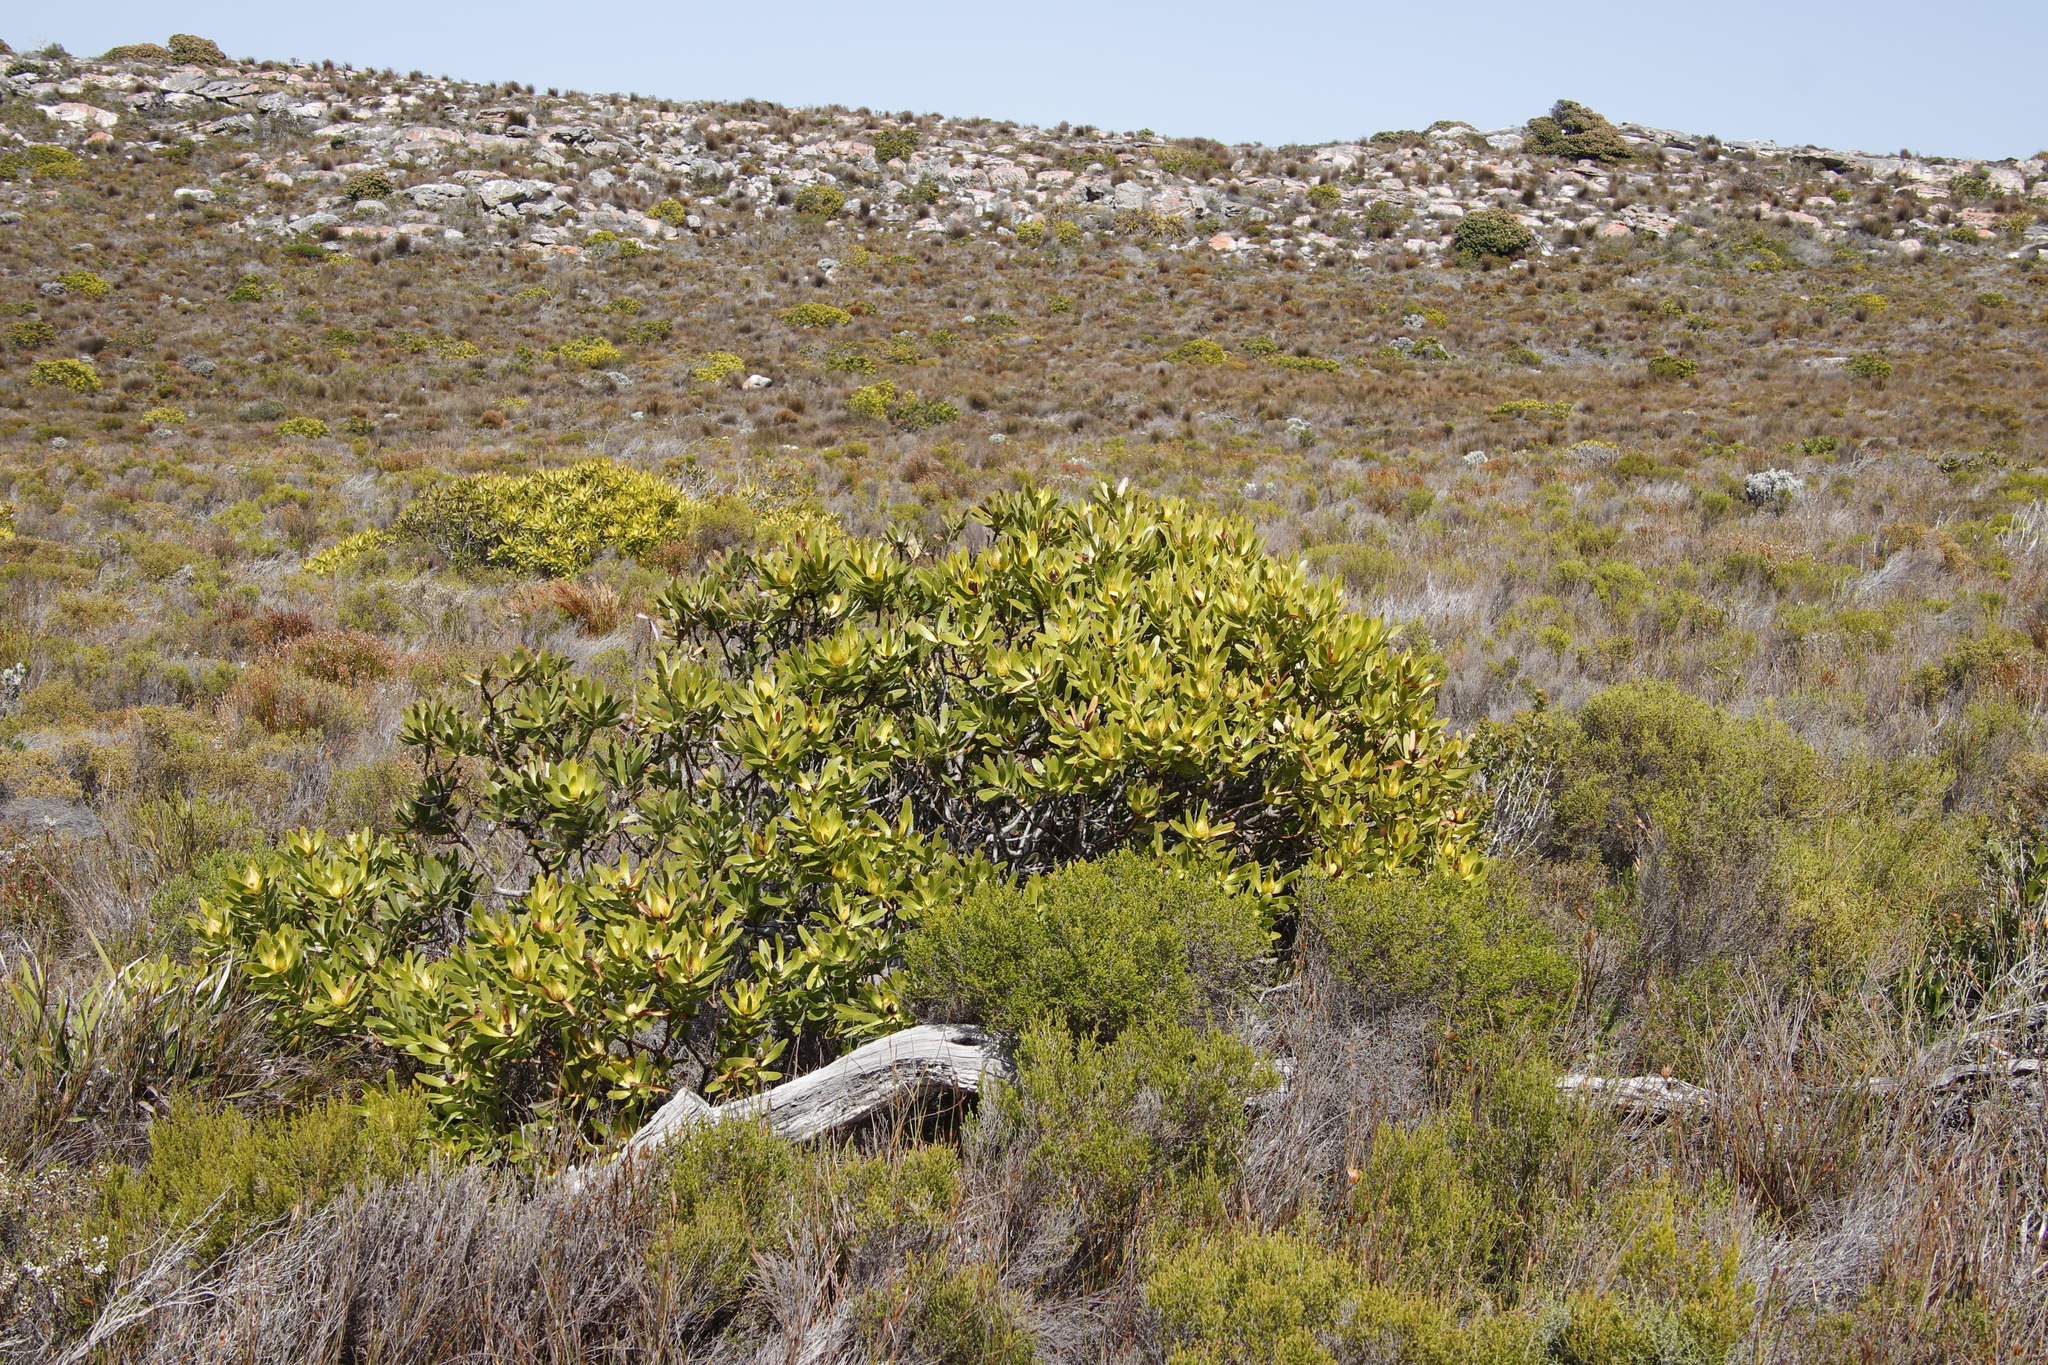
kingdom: Plantae
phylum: Tracheophyta
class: Magnoliopsida
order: Proteales
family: Proteaceae
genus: Leucadendron
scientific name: Leucadendron laureolum
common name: Golden sunshinebush
